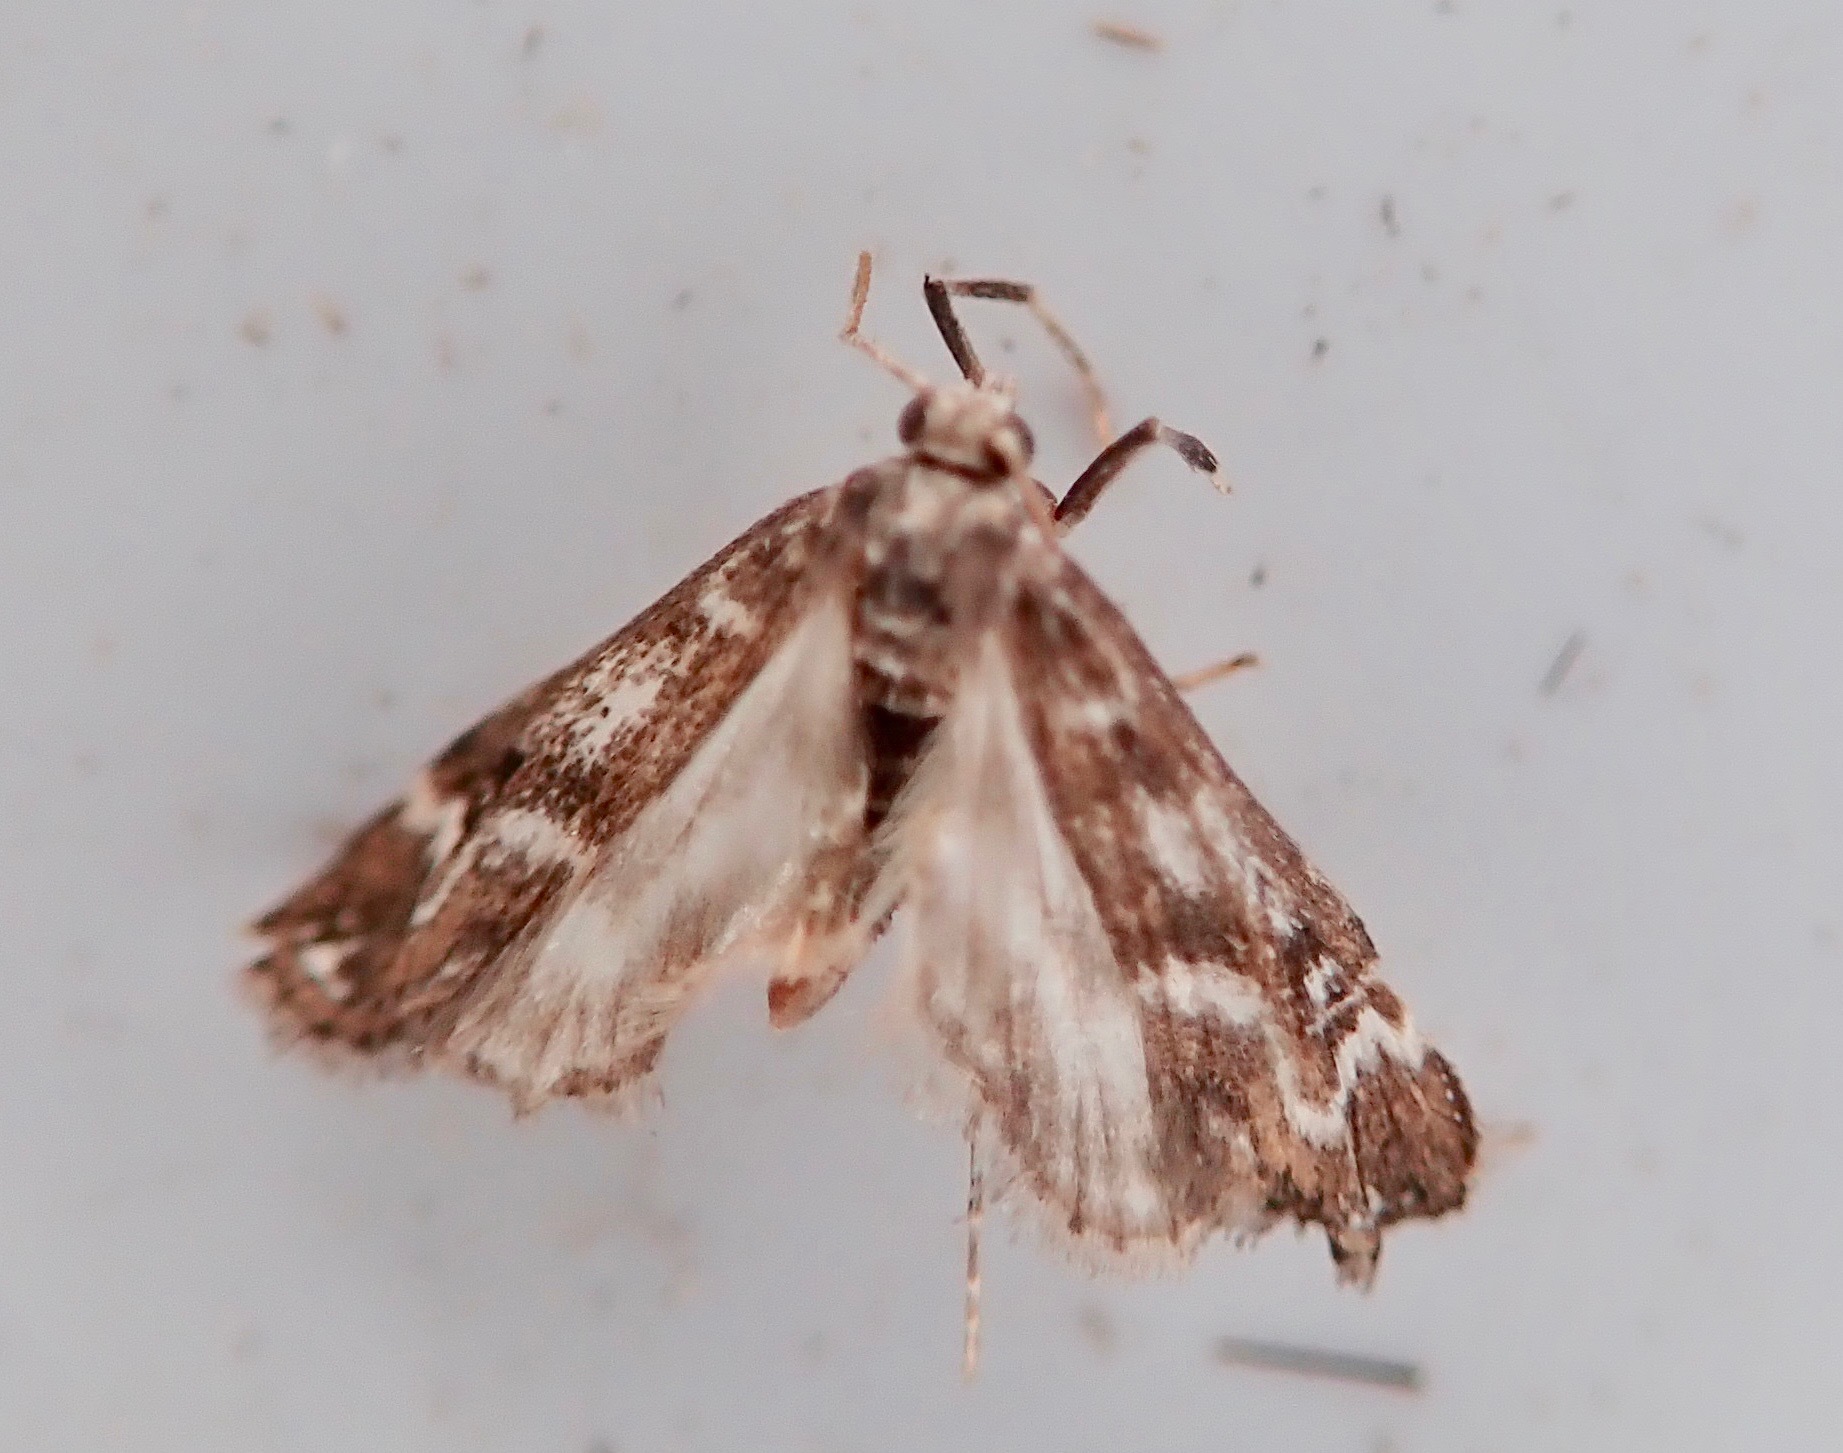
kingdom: Animalia
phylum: Arthropoda
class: Insecta
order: Lepidoptera
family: Crambidae
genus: Hygraula
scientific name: Hygraula nitens
